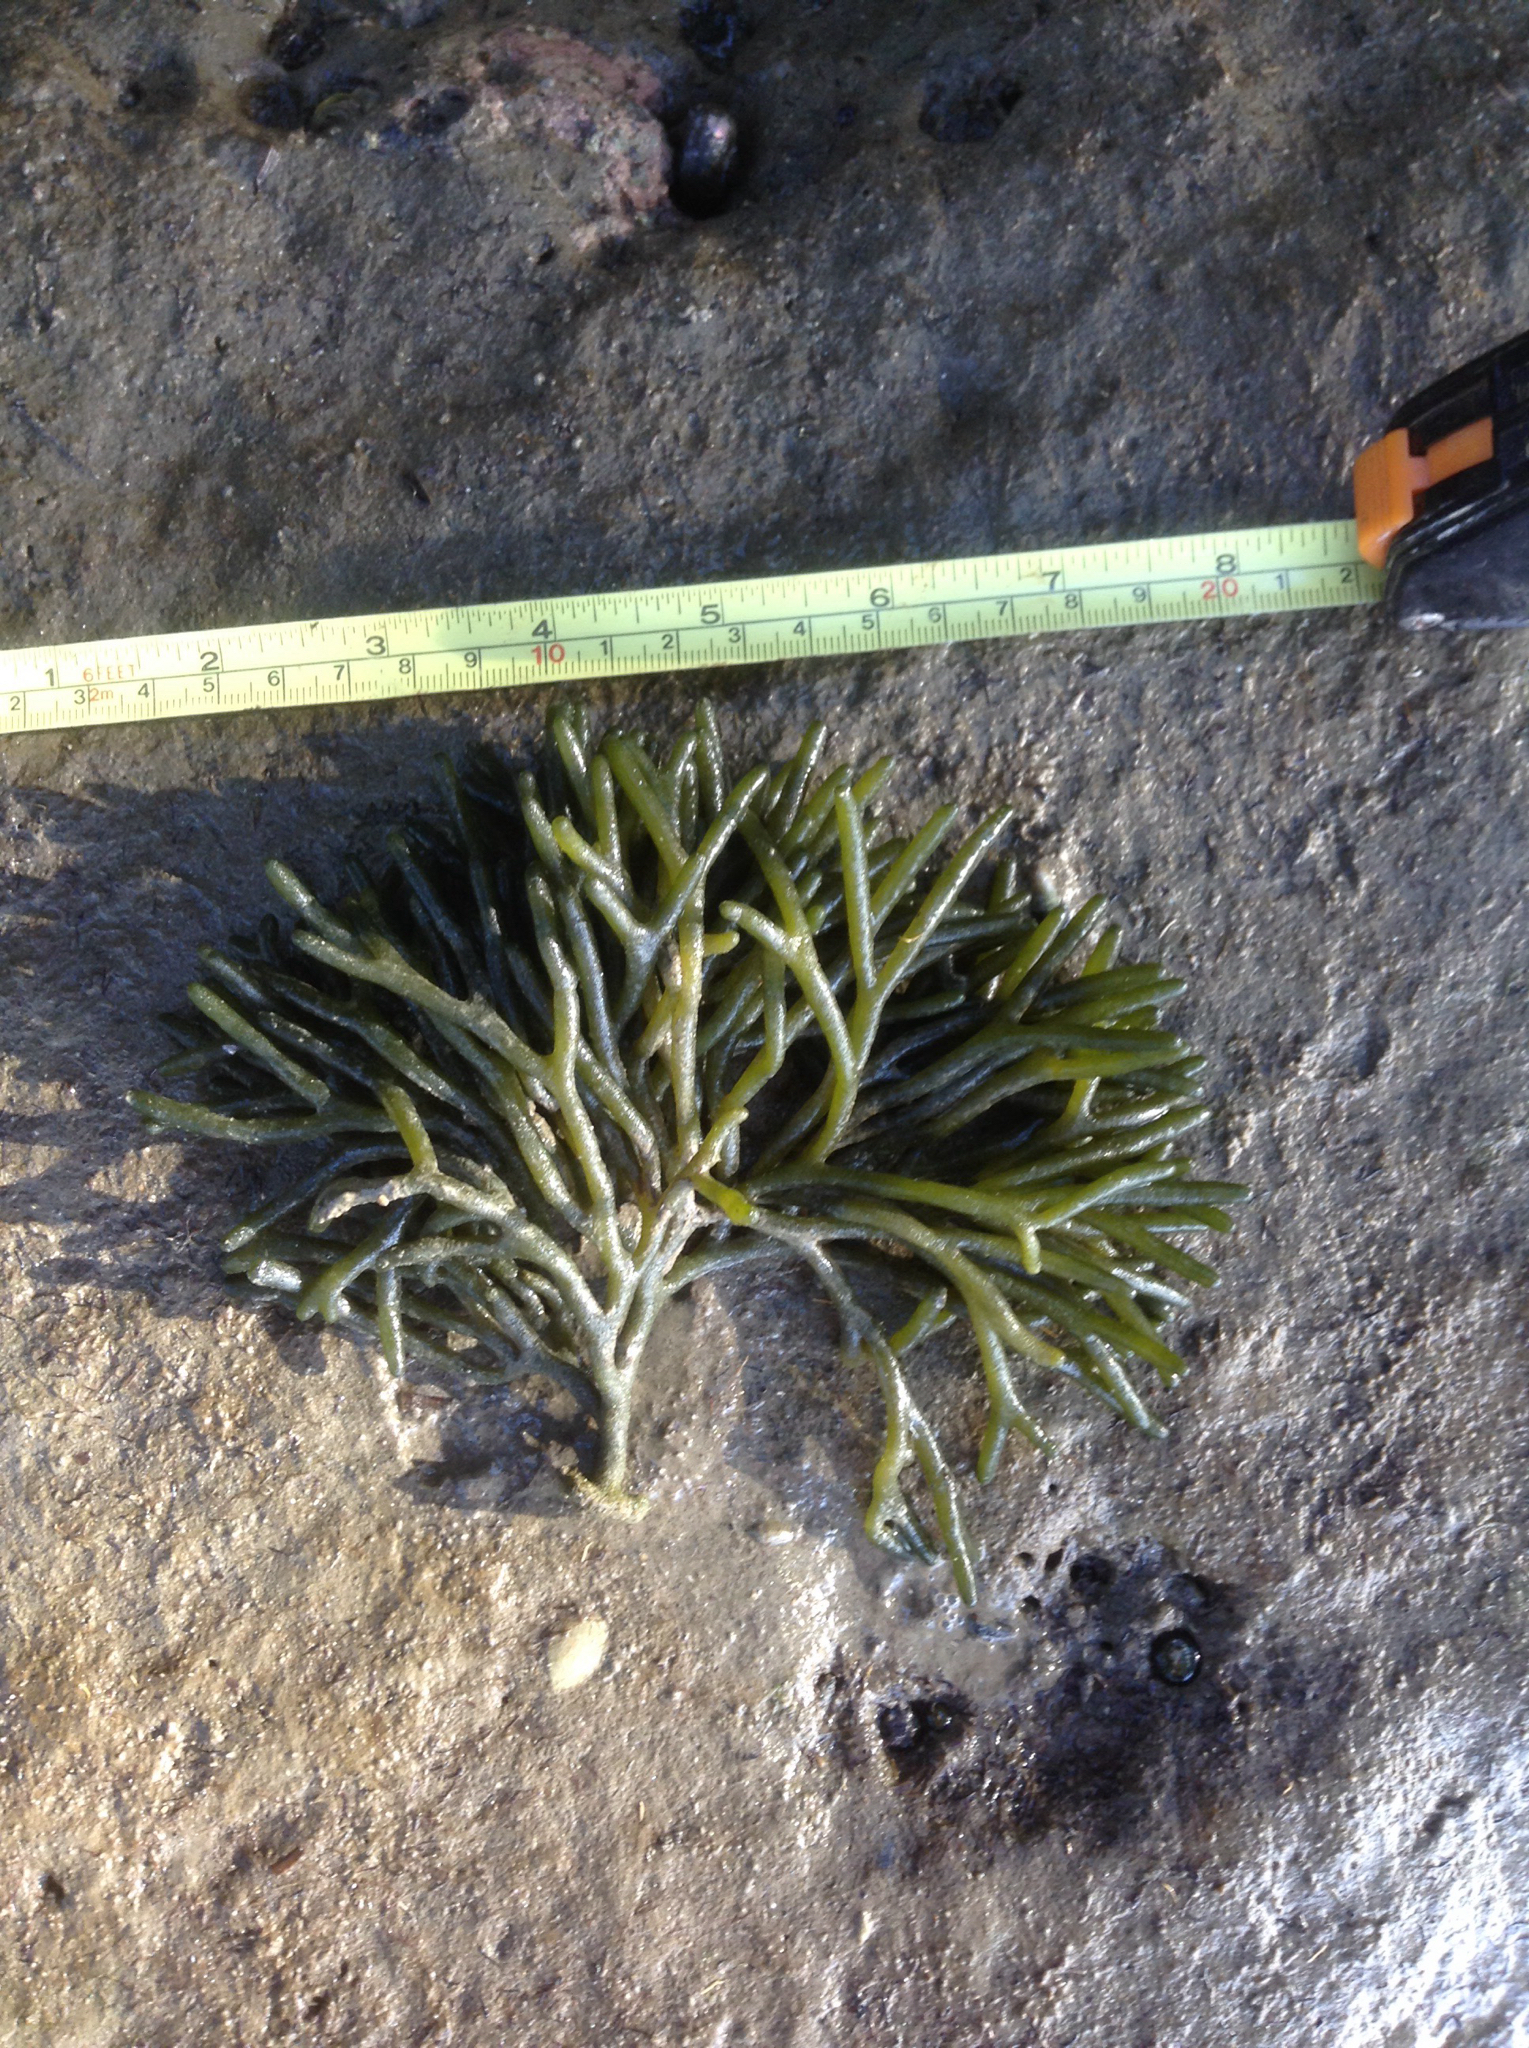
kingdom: Plantae
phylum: Chlorophyta
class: Ulvophyceae
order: Bryopsidales
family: Codiaceae
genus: Codium
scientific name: Codium fragile
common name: Dead man's fingers
